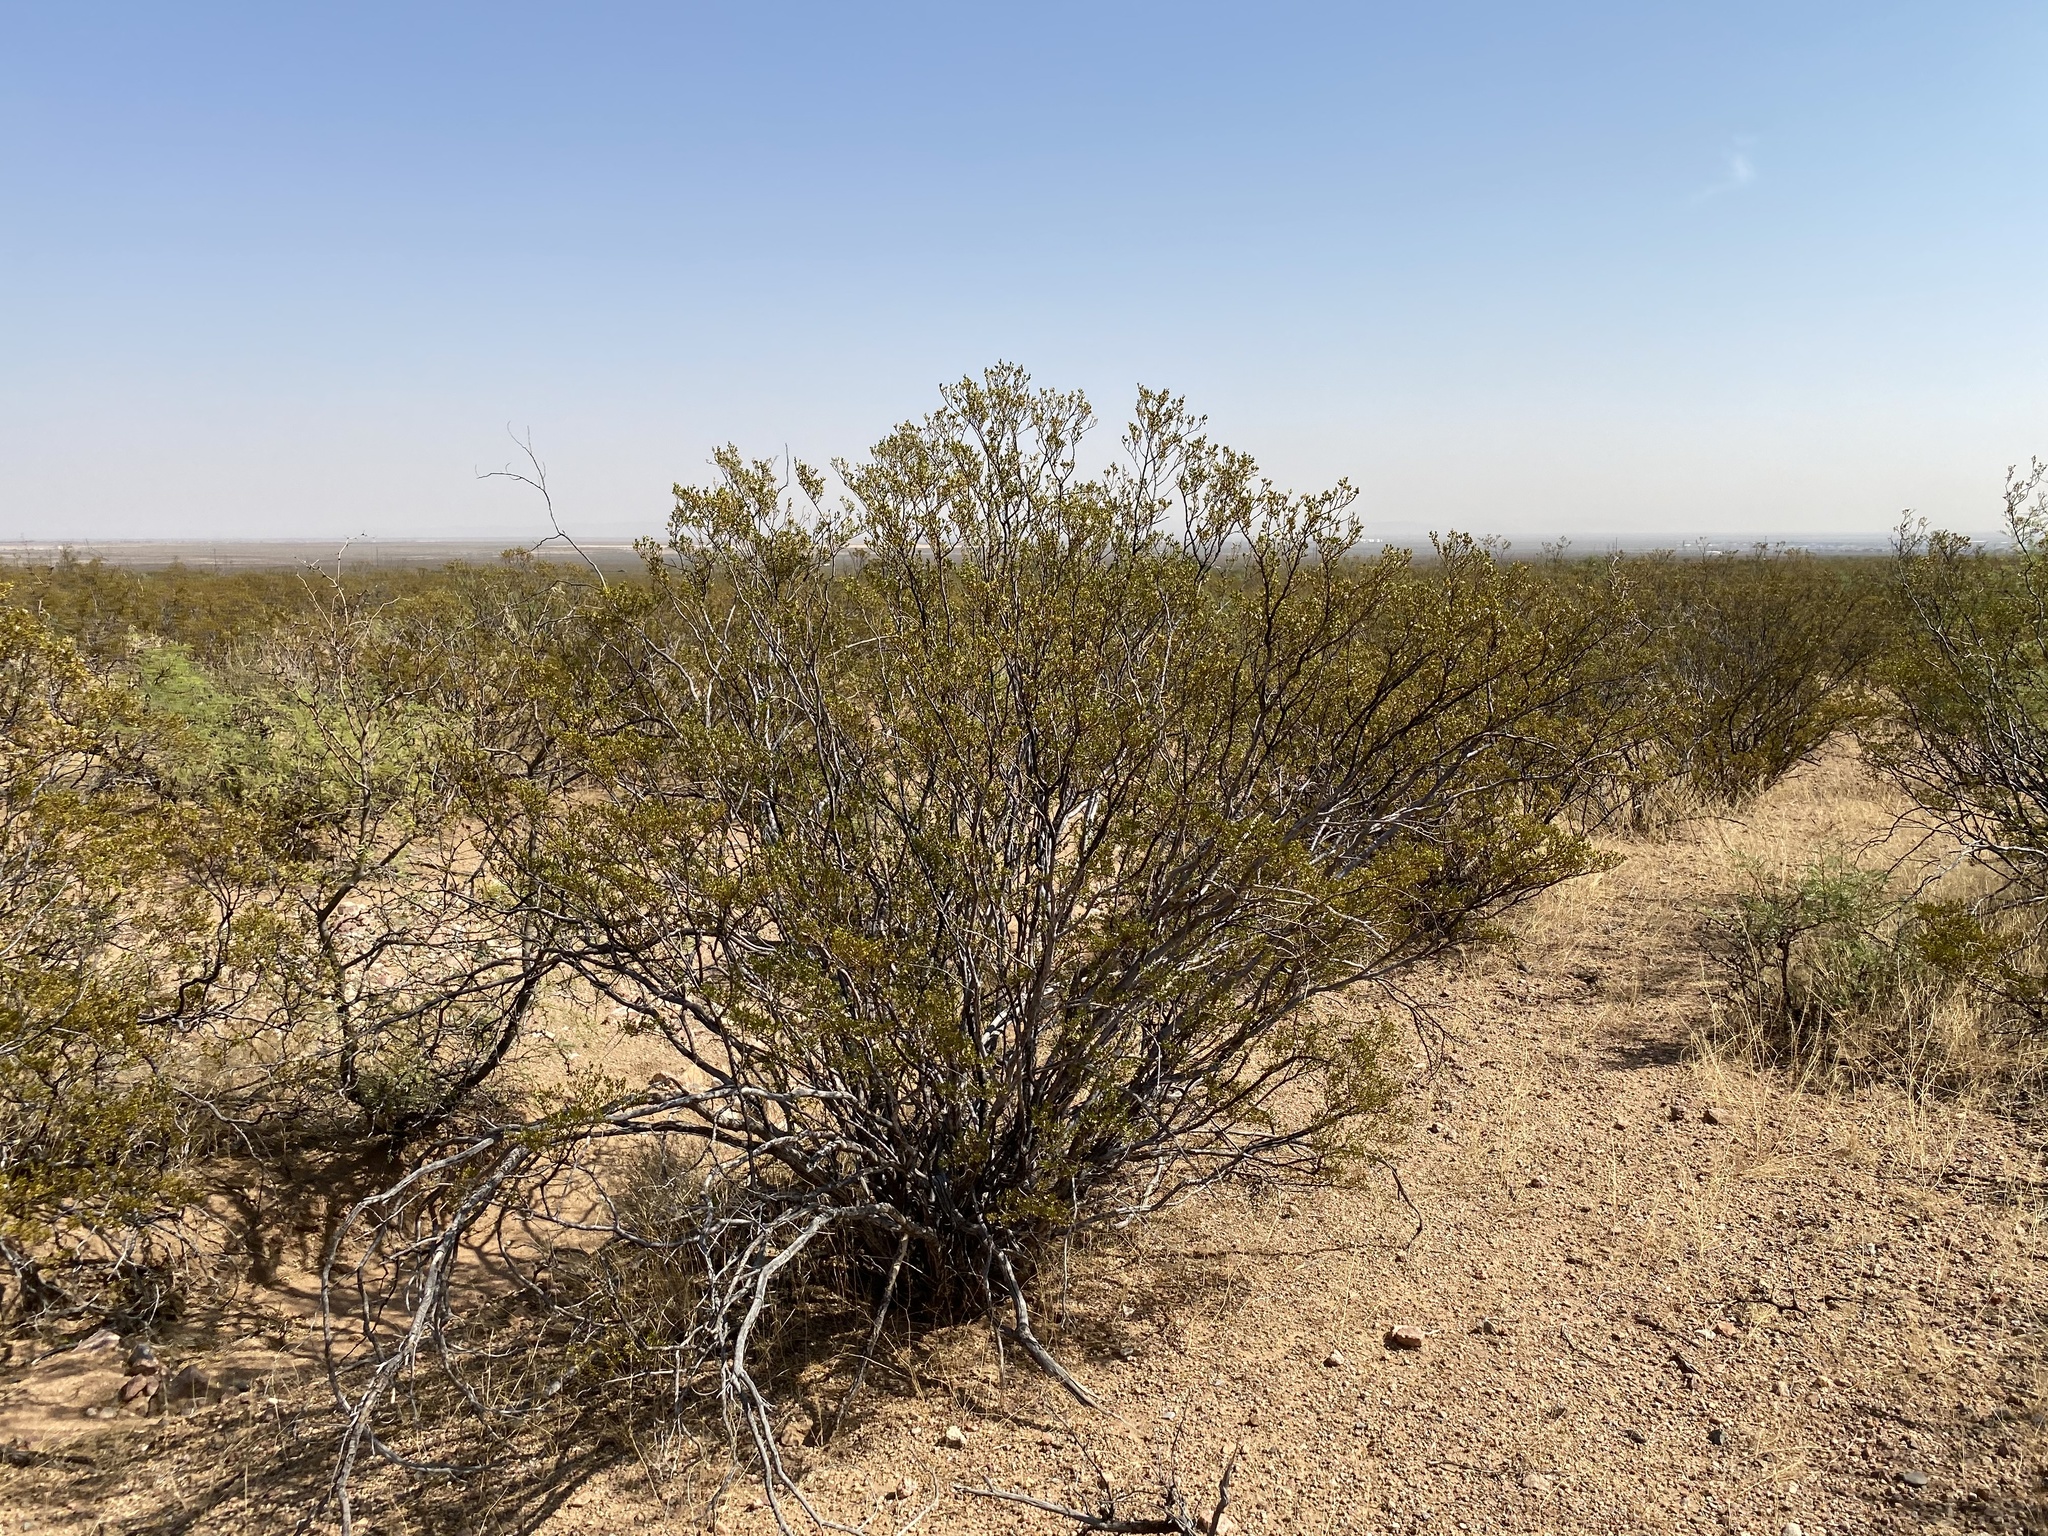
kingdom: Plantae
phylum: Tracheophyta
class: Magnoliopsida
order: Zygophyllales
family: Zygophyllaceae
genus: Larrea
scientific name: Larrea tridentata
